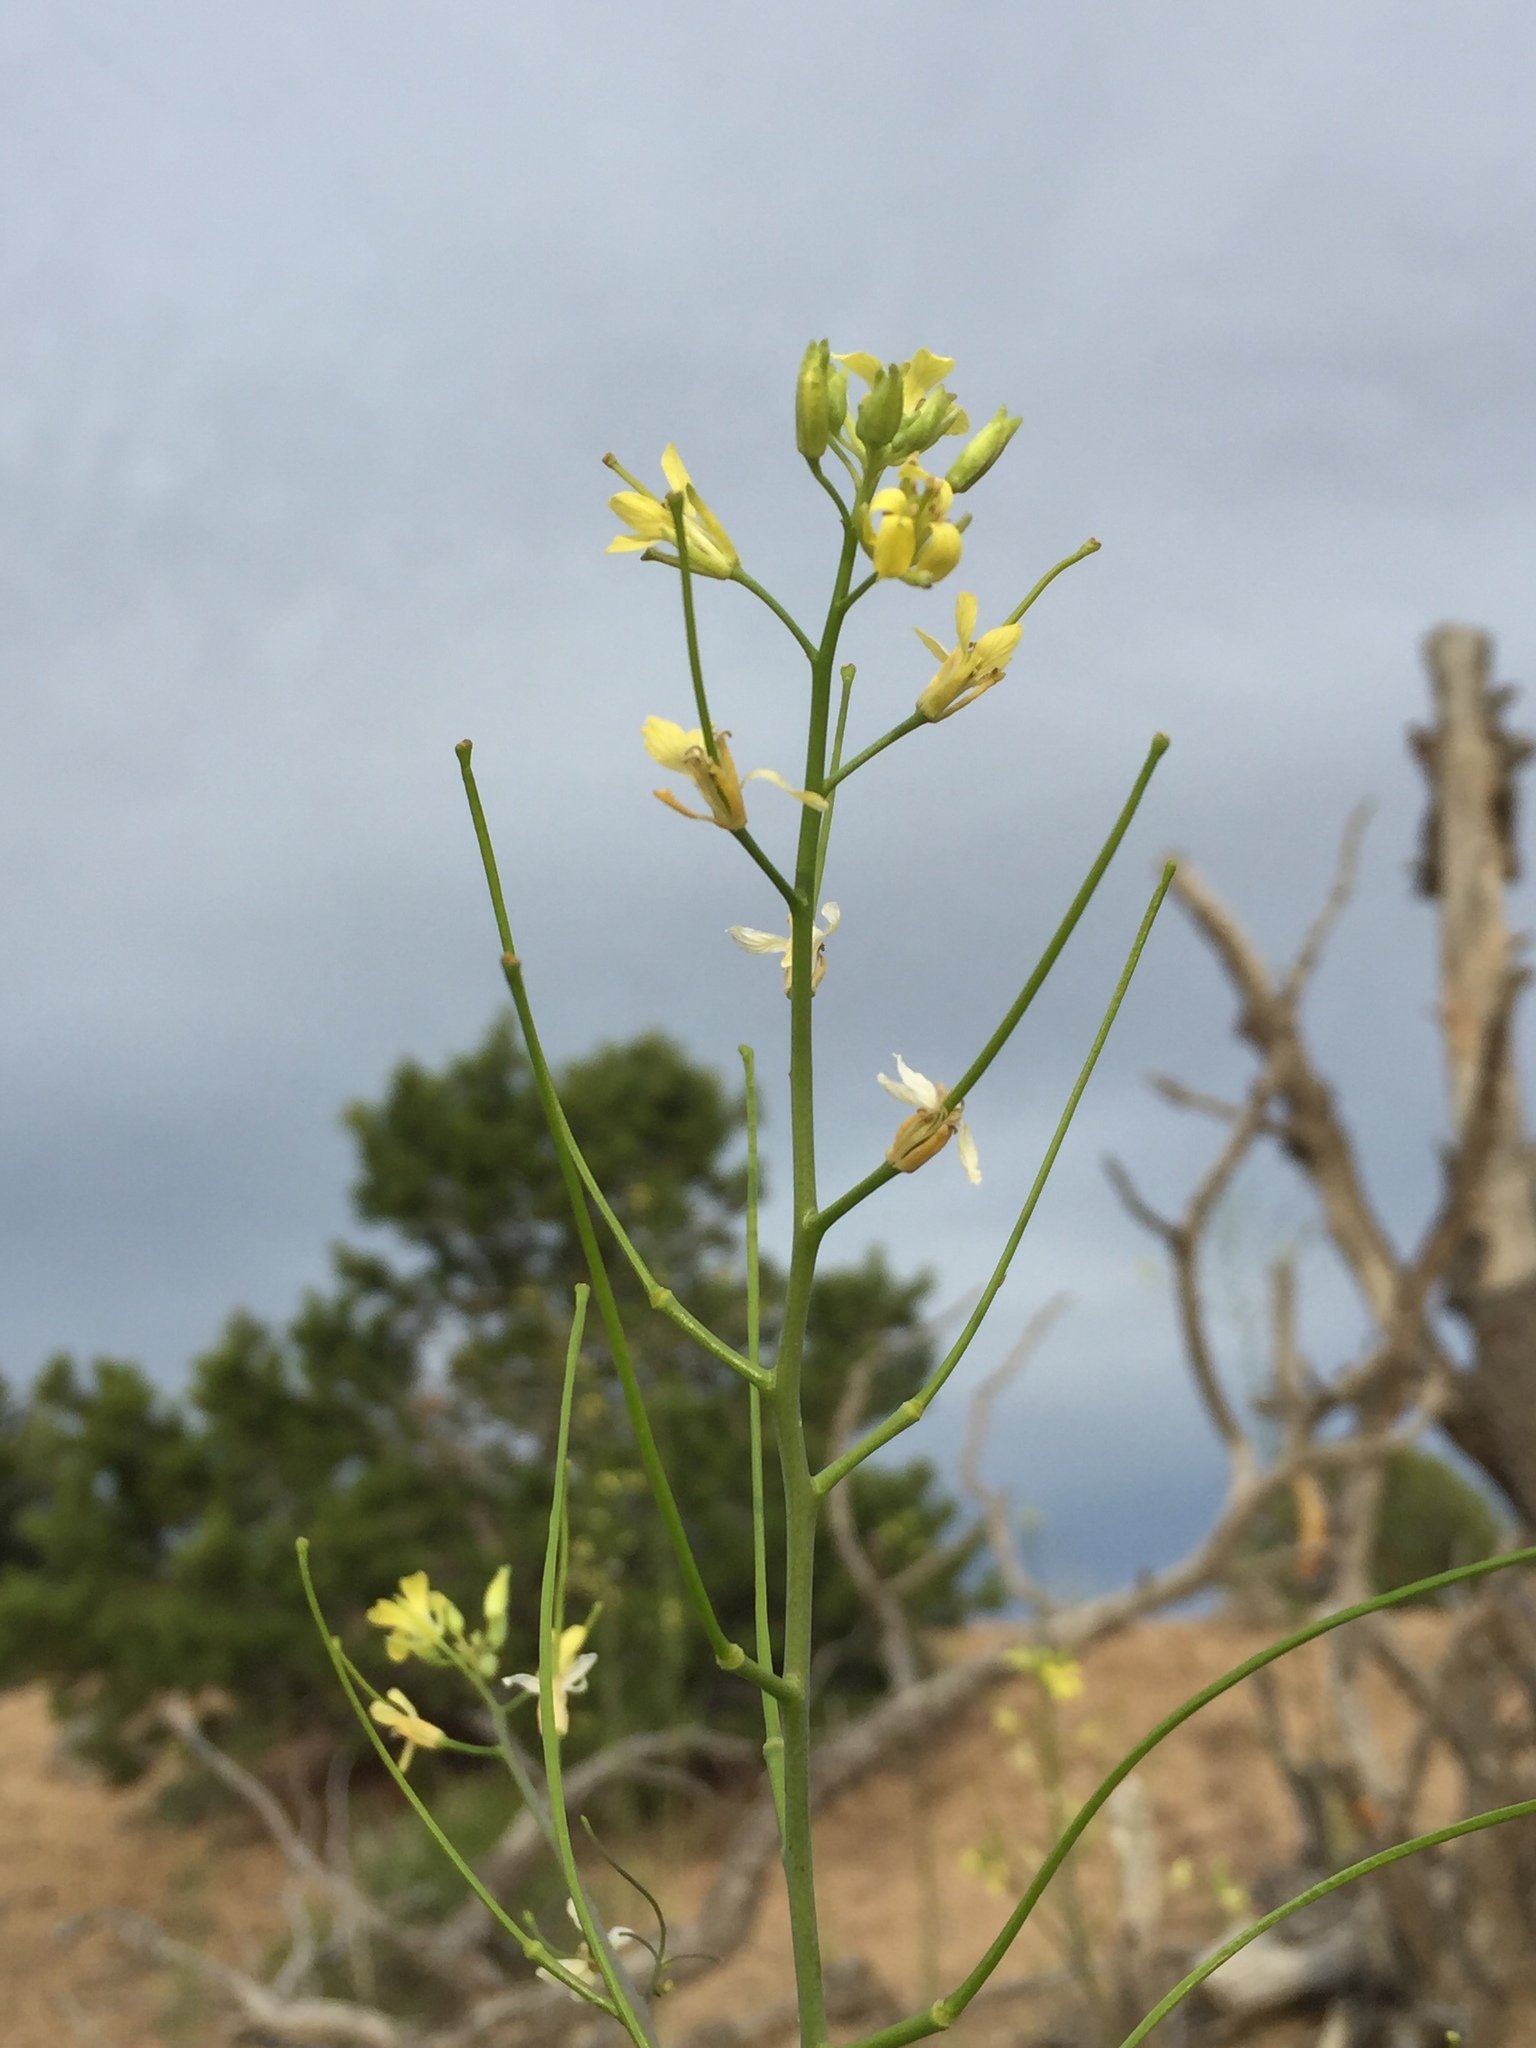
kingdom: Plantae
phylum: Tracheophyta
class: Magnoliopsida
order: Brassicales
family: Brassicaceae
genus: Sisymbrium
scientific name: Sisymbrium altissimum
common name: Tall rocket
